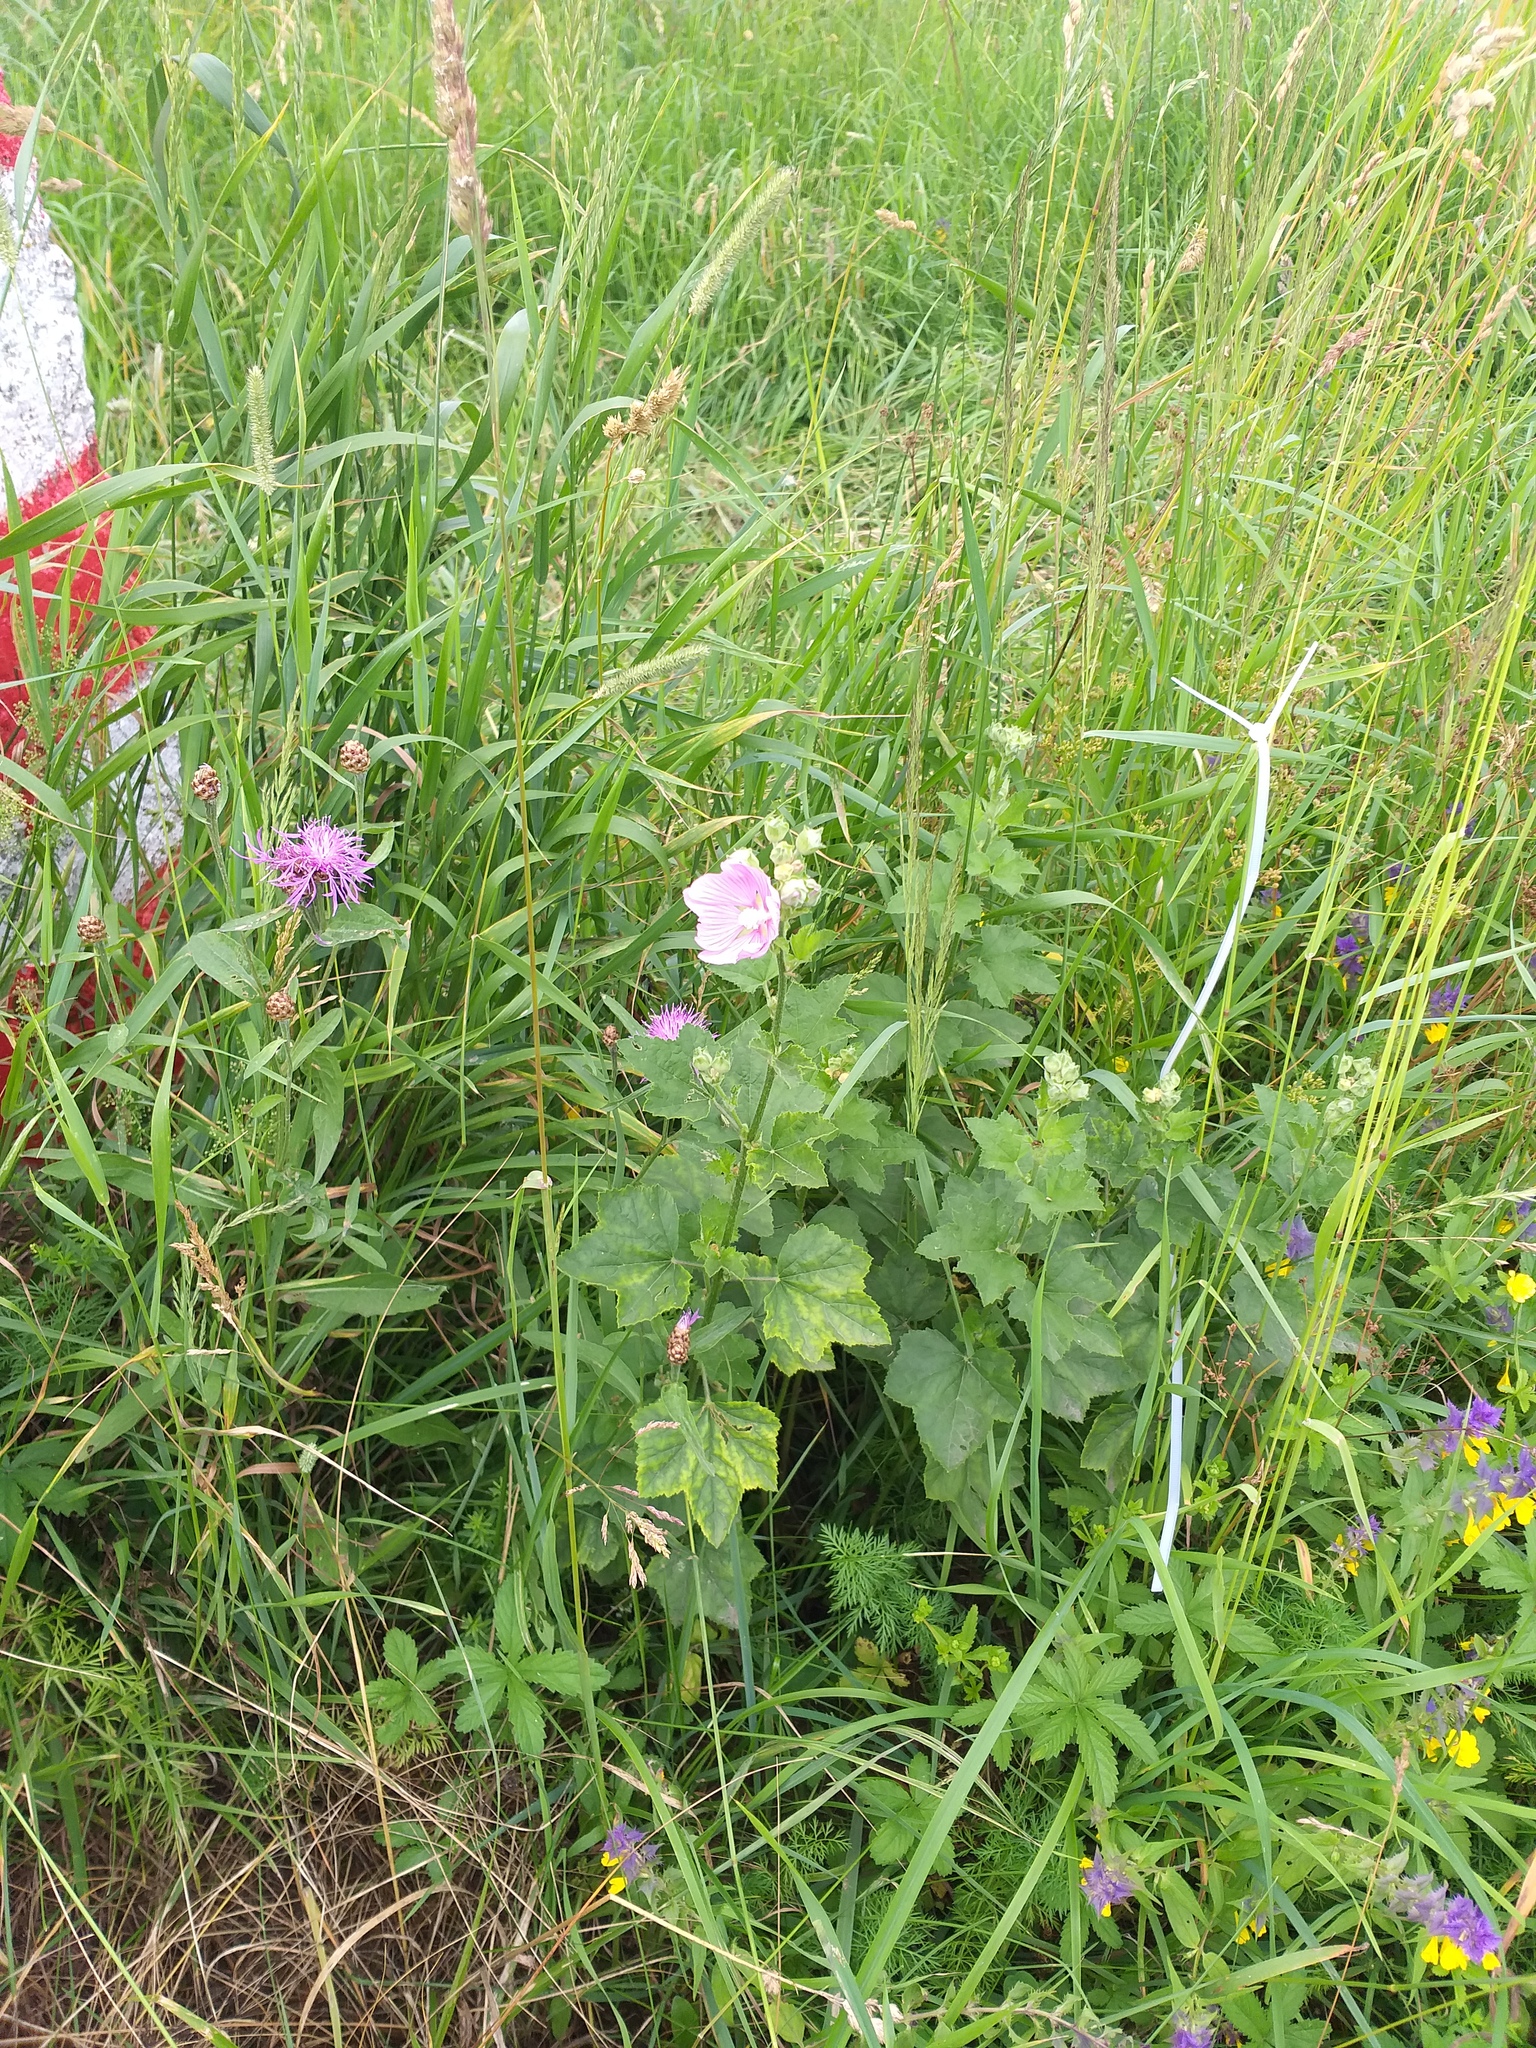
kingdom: Plantae
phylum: Tracheophyta
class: Magnoliopsida
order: Malvales
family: Malvaceae
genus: Malva
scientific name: Malva thuringiaca
